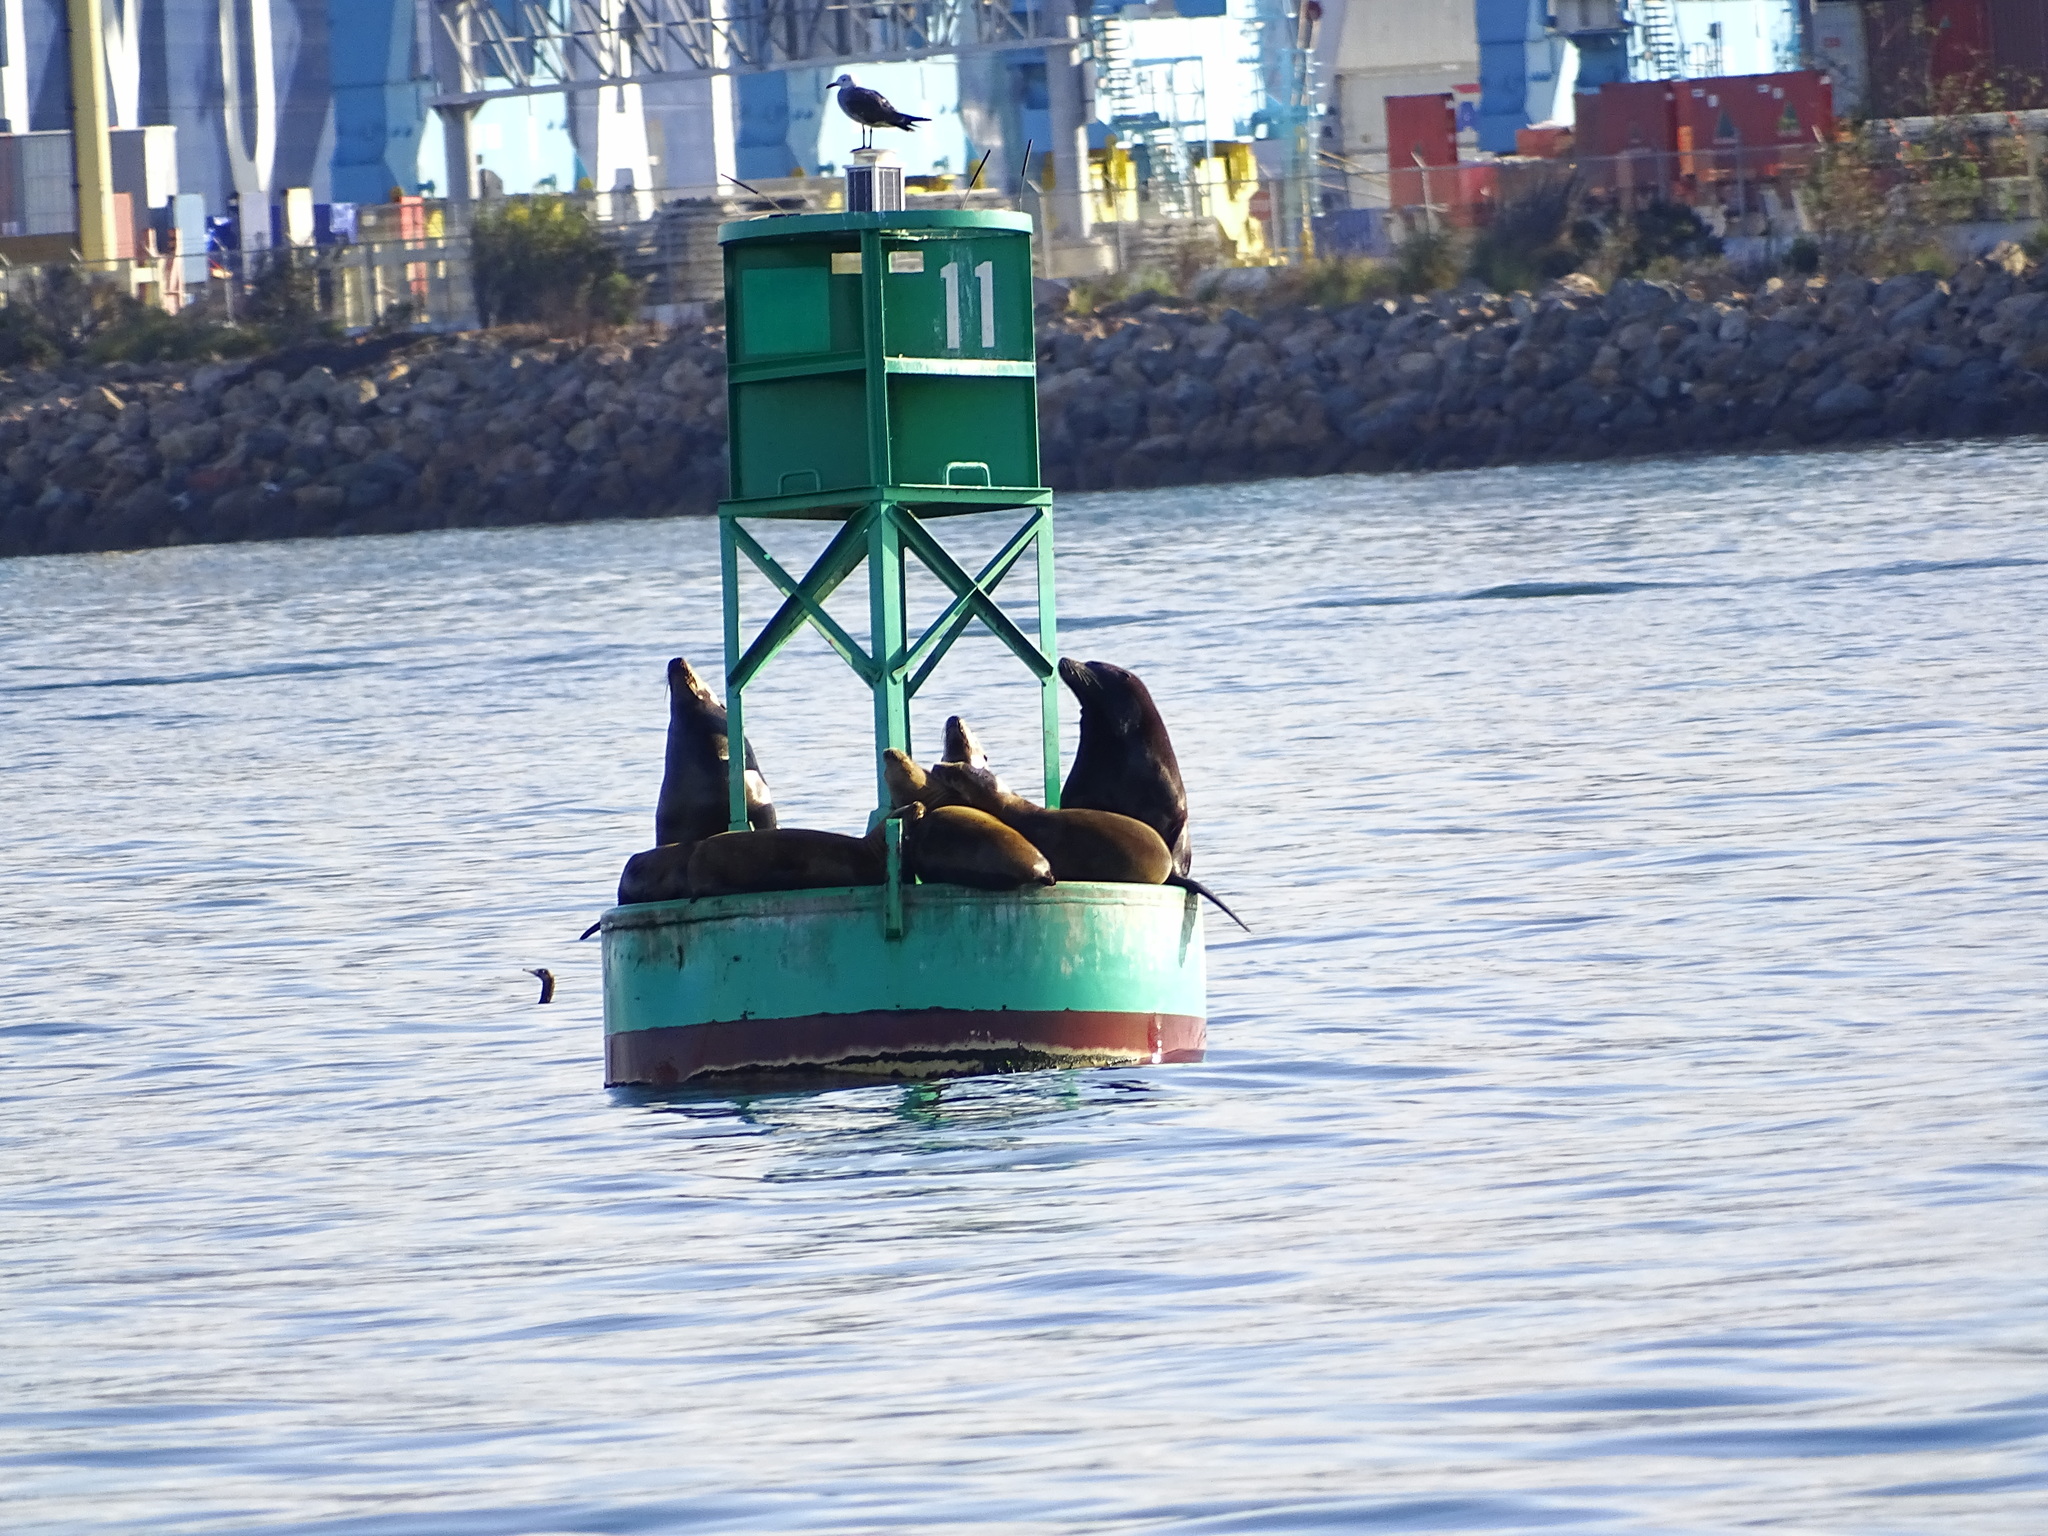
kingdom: Animalia
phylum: Chordata
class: Aves
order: Charadriiformes
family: Laridae
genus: Larus
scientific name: Larus heermanni
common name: Heermann's gull
